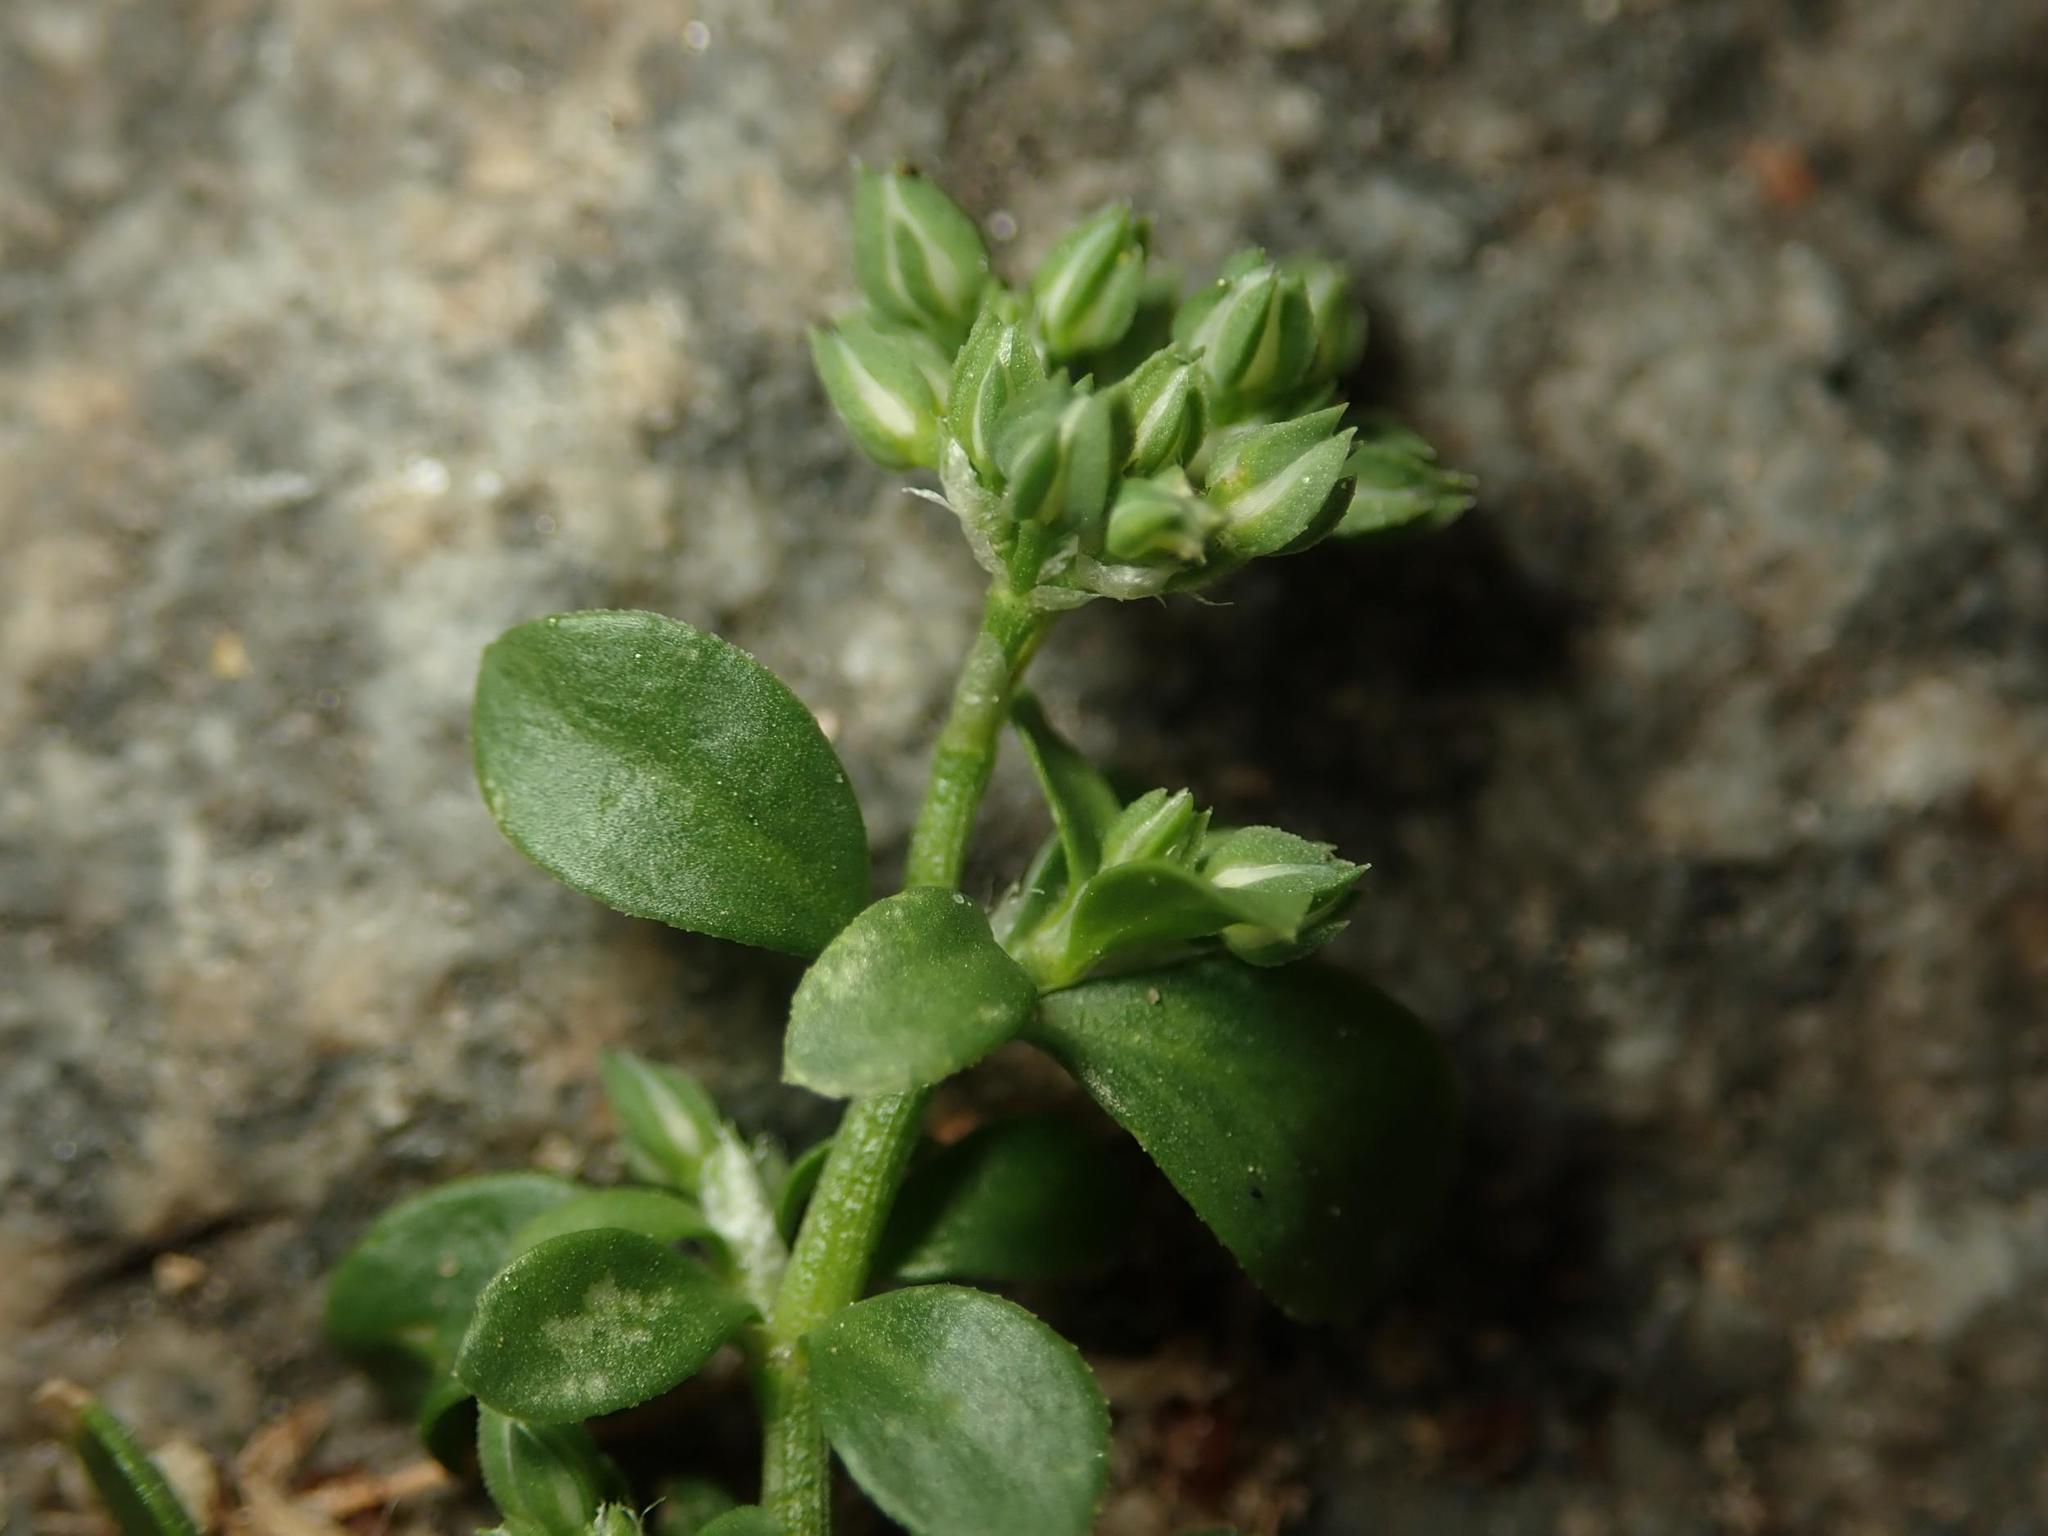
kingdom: Plantae
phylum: Tracheophyta
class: Magnoliopsida
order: Caryophyllales
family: Caryophyllaceae
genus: Polycarpon
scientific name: Polycarpon tetraphyllum
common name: Four-leaved all-seed
